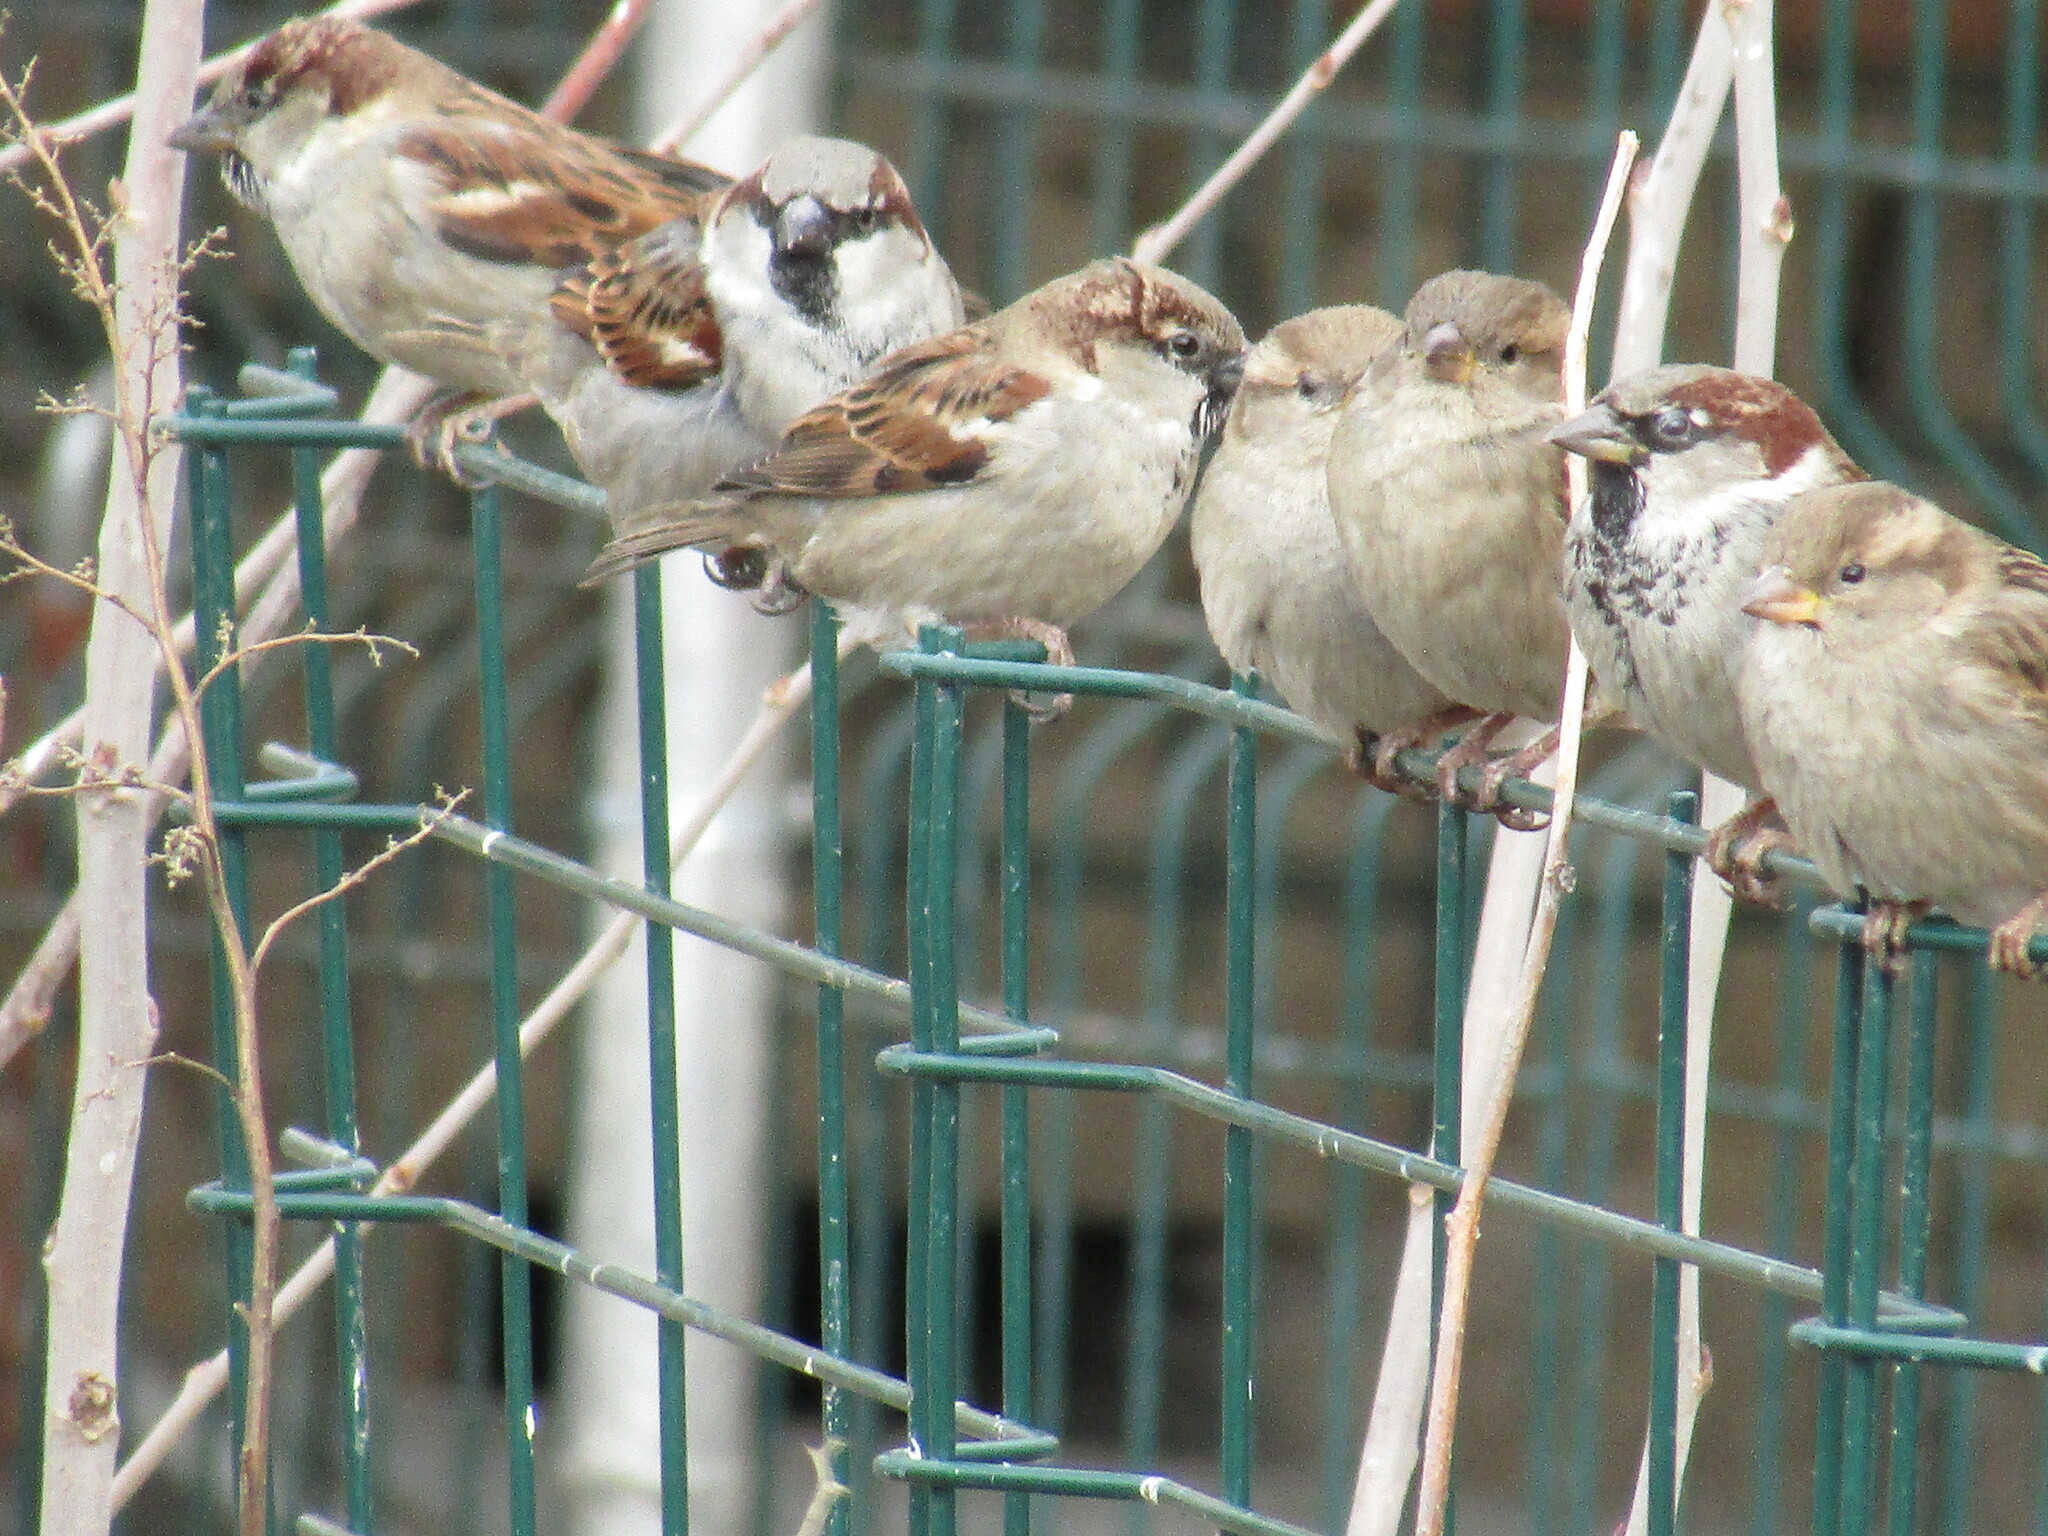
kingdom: Animalia
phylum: Chordata
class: Aves
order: Passeriformes
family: Passeridae
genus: Passer
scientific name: Passer domesticus
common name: House sparrow
